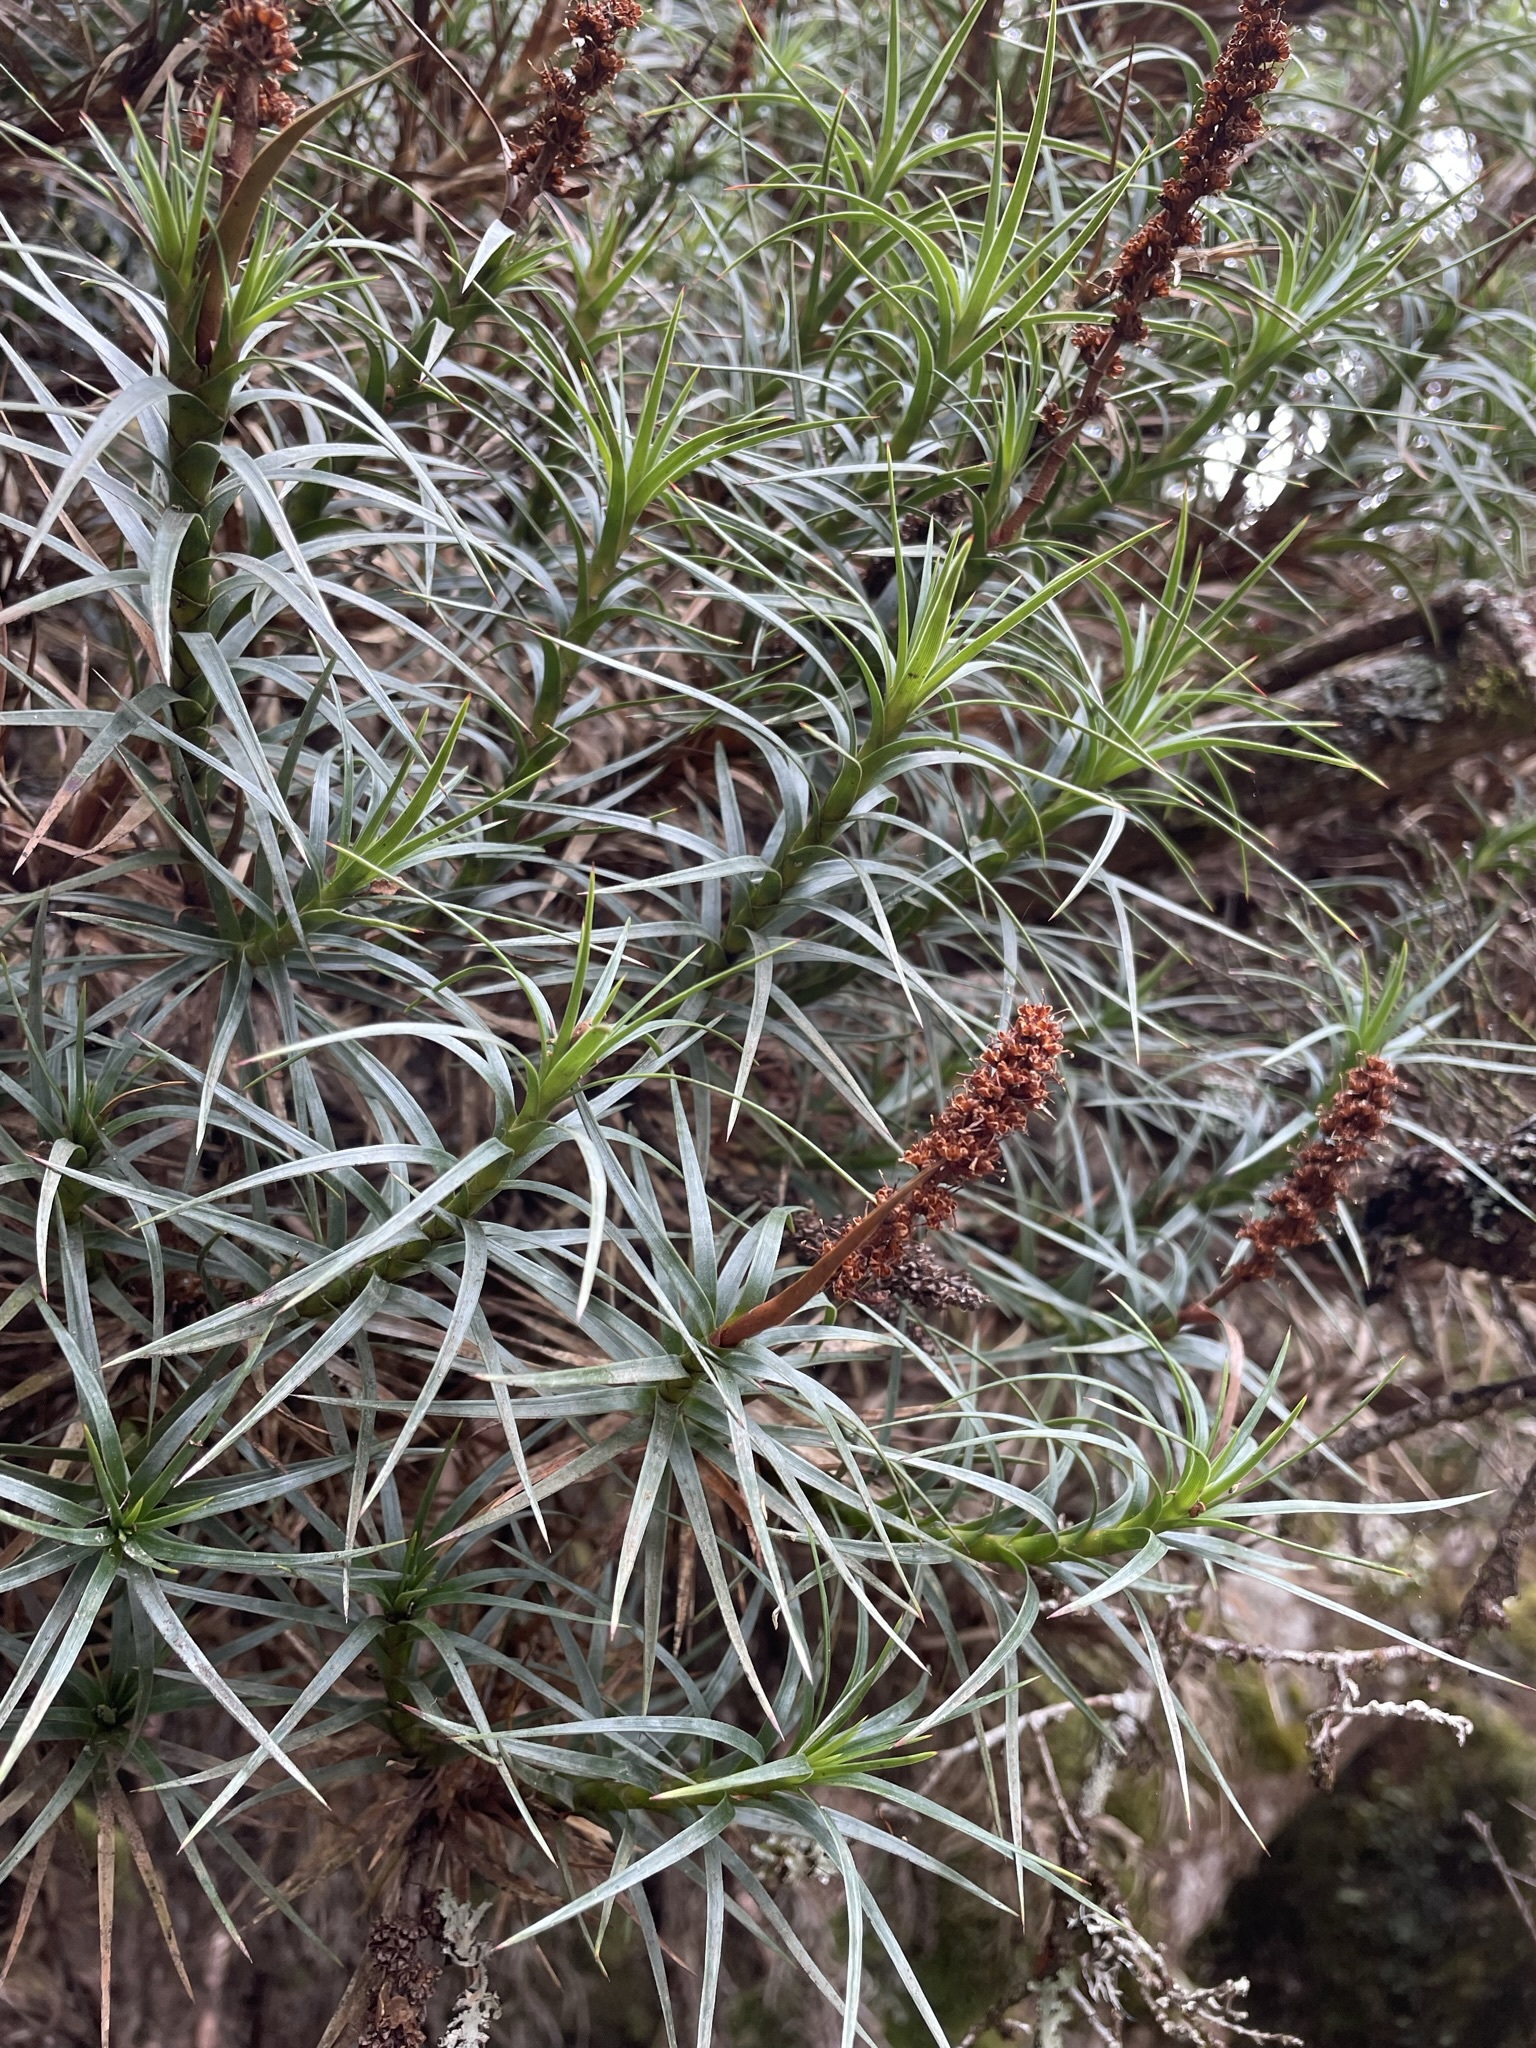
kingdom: Plantae
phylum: Tracheophyta
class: Magnoliopsida
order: Ericales
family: Ericaceae
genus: Dracophyllum
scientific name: Dracophyllum persistentifolium
